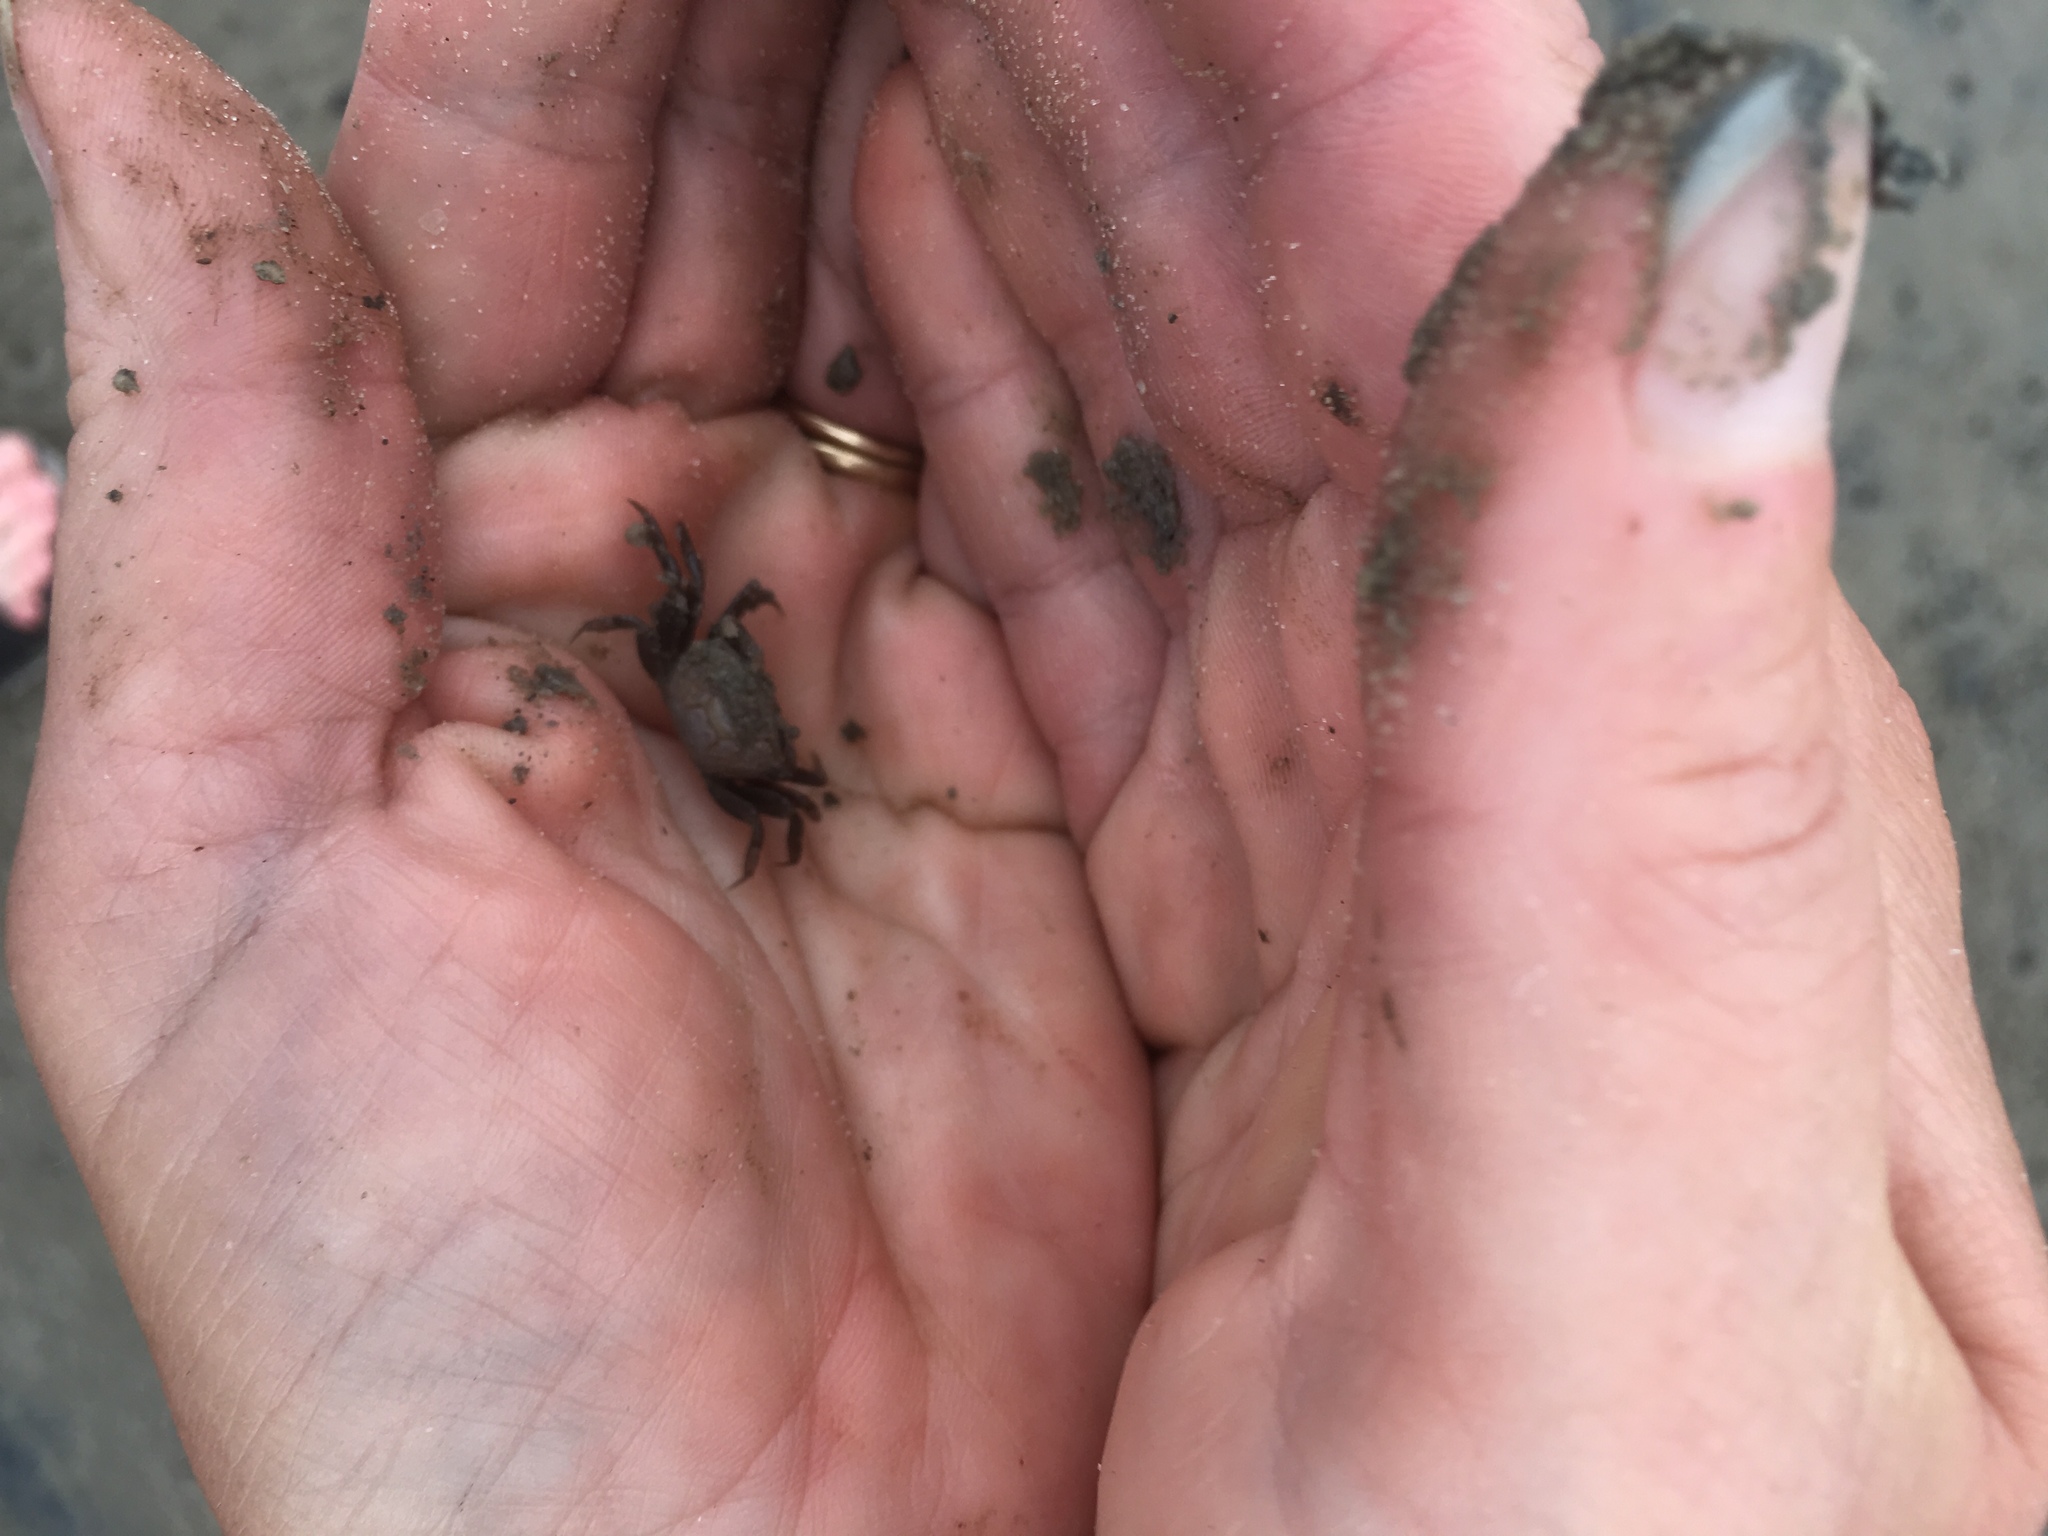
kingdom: Animalia
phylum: Arthropoda
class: Malacostraca
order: Decapoda
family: Ocypodidae
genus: Leptuca
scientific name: Leptuca pugilator
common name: Atlantic sand fiddler crab
